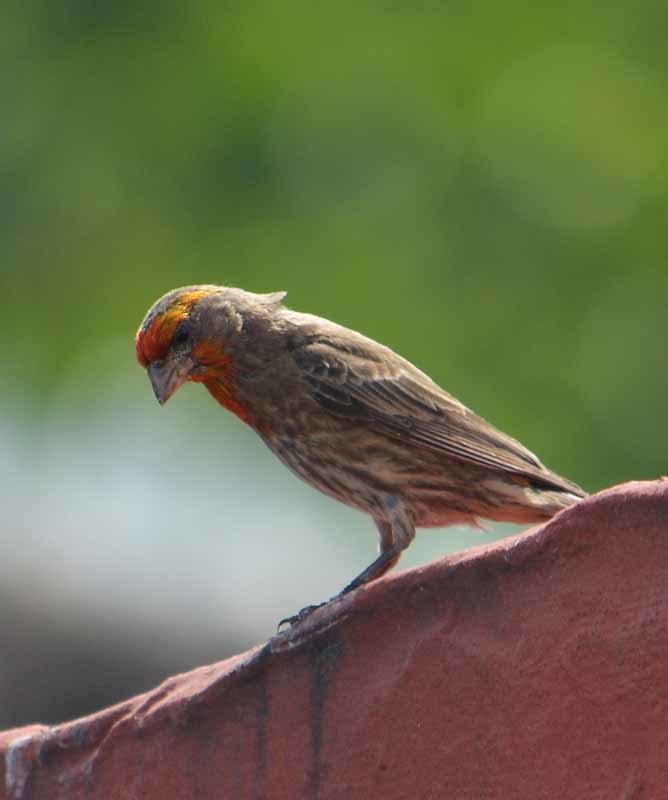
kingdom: Animalia
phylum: Chordata
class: Aves
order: Passeriformes
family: Fringillidae
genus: Haemorhous
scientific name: Haemorhous mexicanus
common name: House finch
